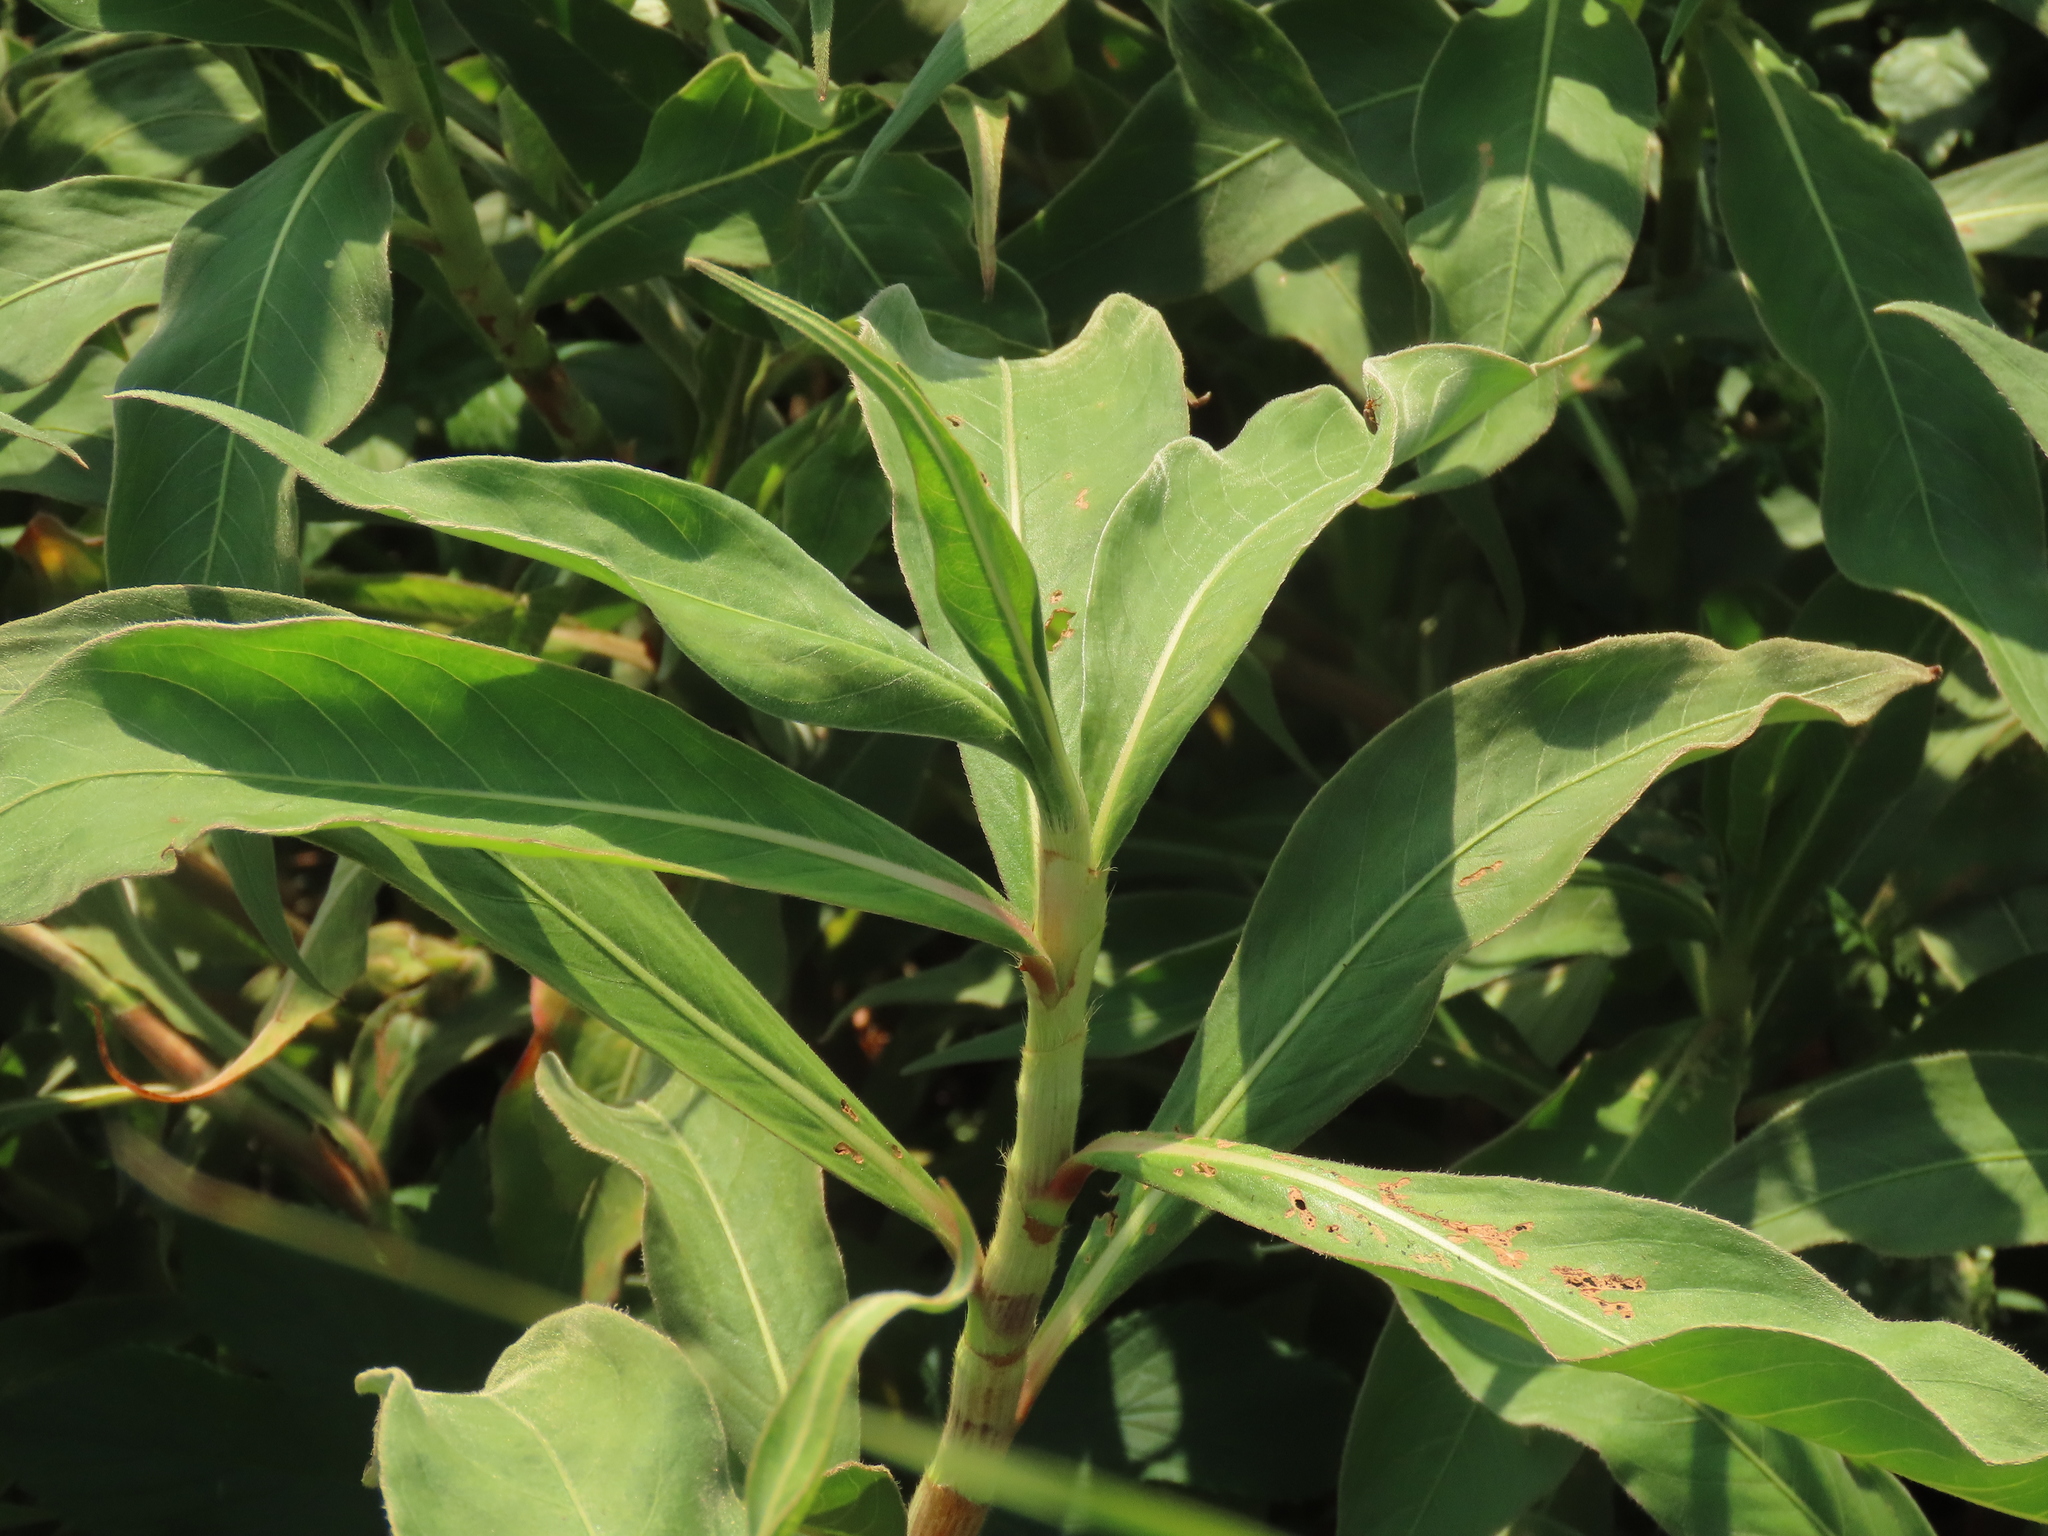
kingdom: Plantae
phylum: Tracheophyta
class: Magnoliopsida
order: Caryophyllales
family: Polygonaceae
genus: Persicaria
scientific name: Persicaria pulchra
